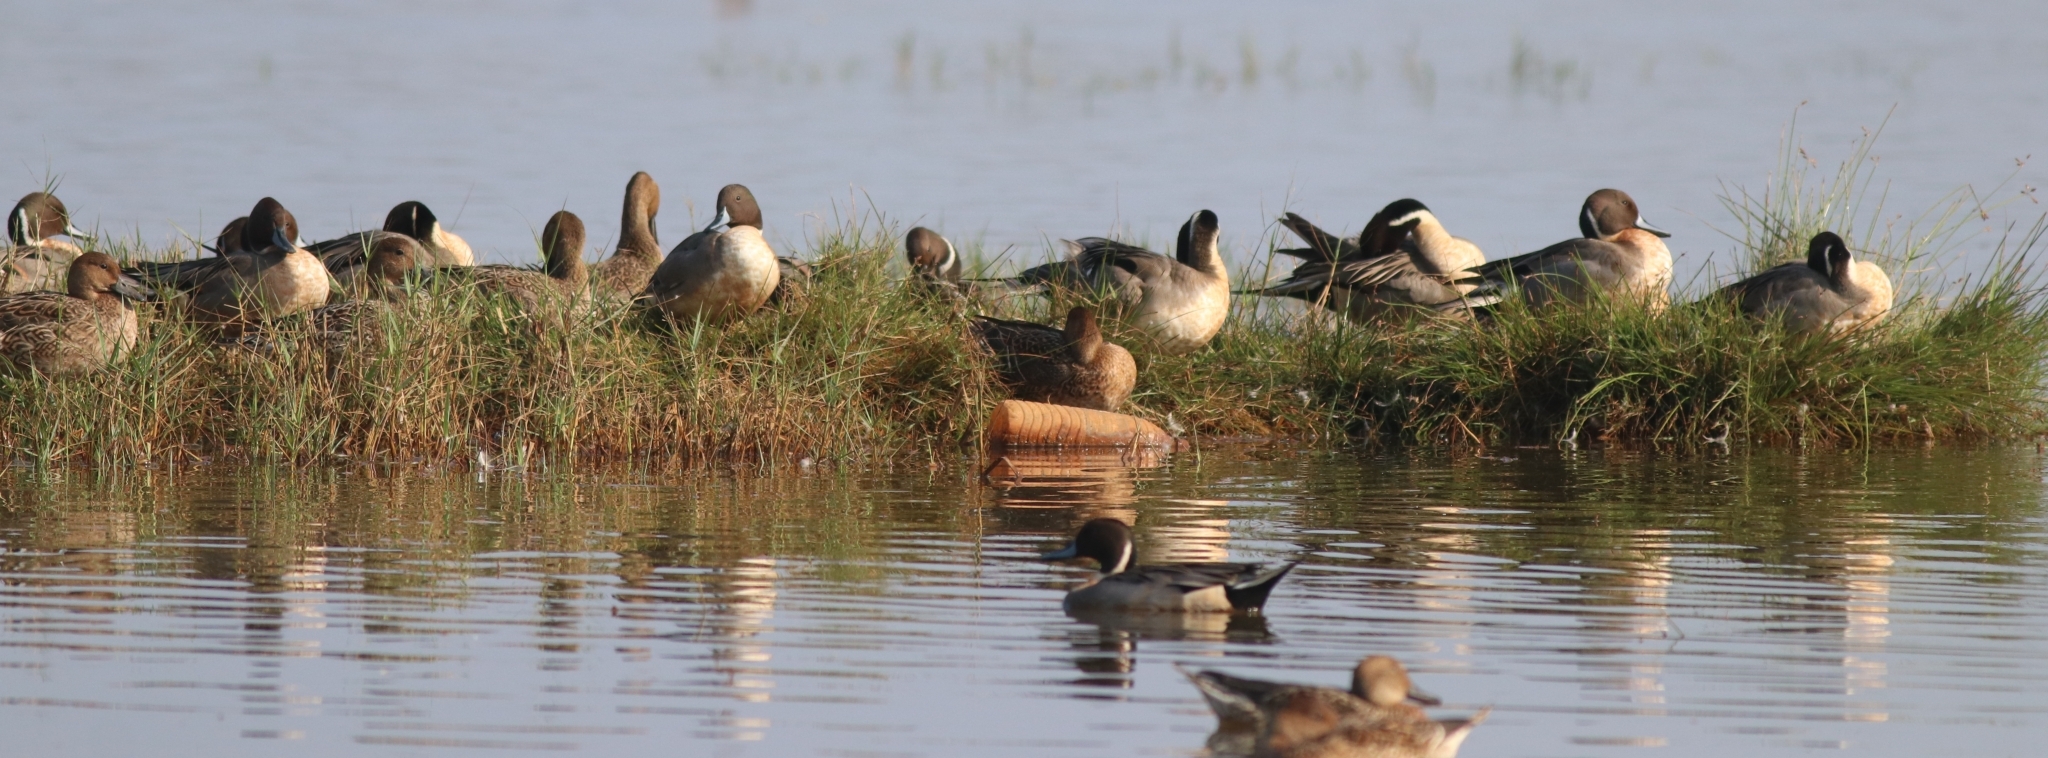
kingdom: Animalia
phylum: Chordata
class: Aves
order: Anseriformes
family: Anatidae
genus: Anas
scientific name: Anas acuta
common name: Northern pintail
